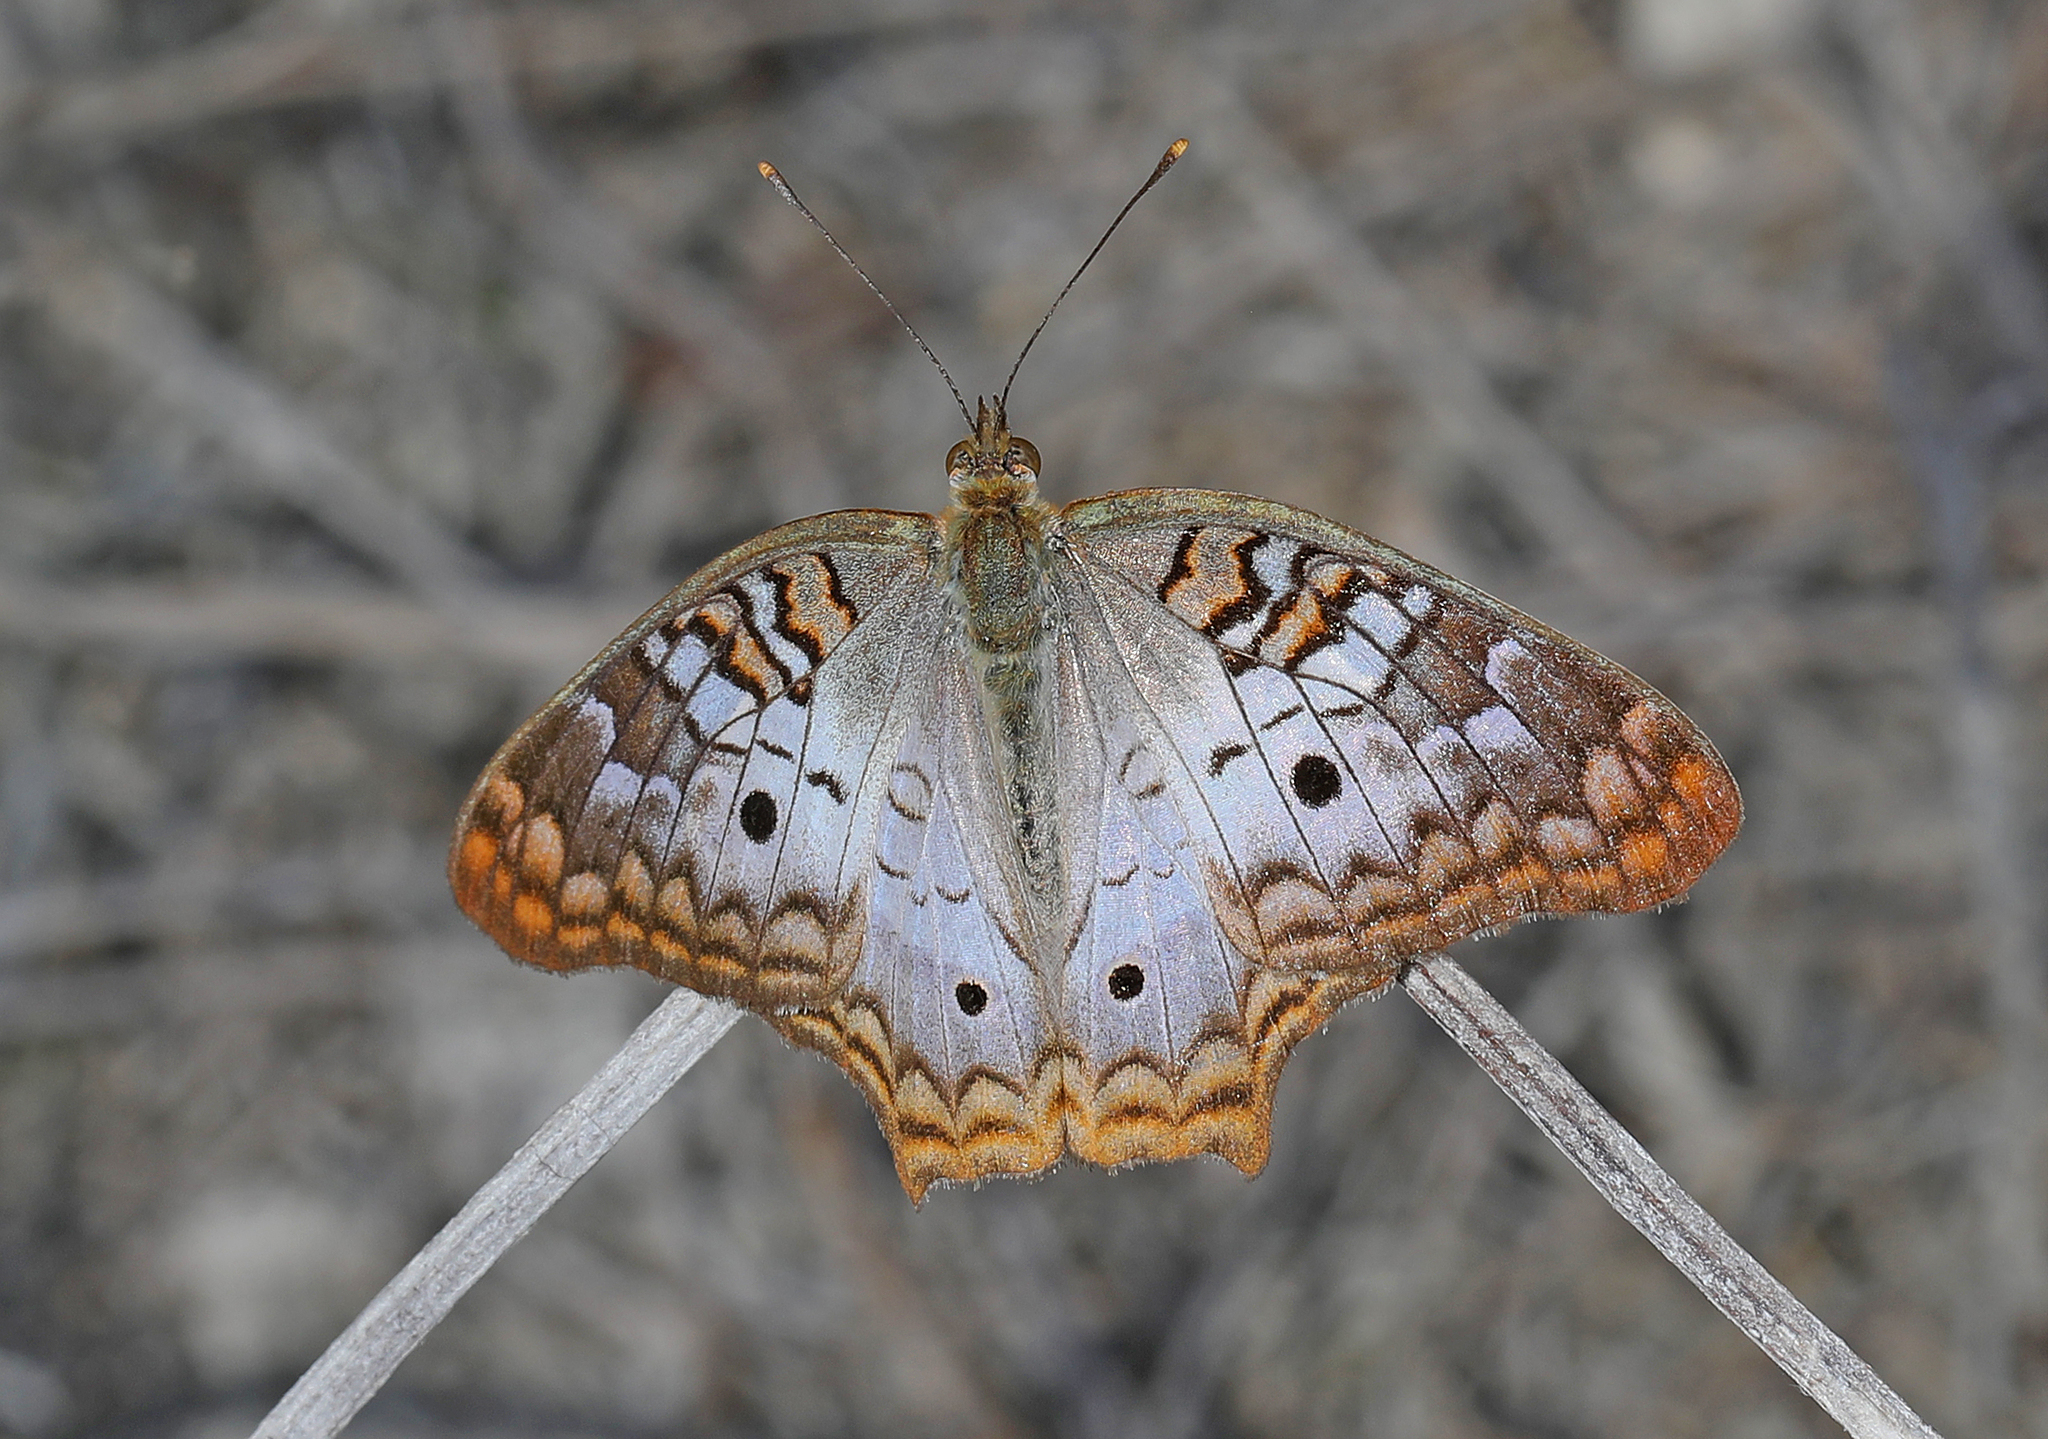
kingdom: Animalia
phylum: Arthropoda
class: Insecta
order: Lepidoptera
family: Nymphalidae
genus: Anartia
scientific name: Anartia jatrophae
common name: White peacock
